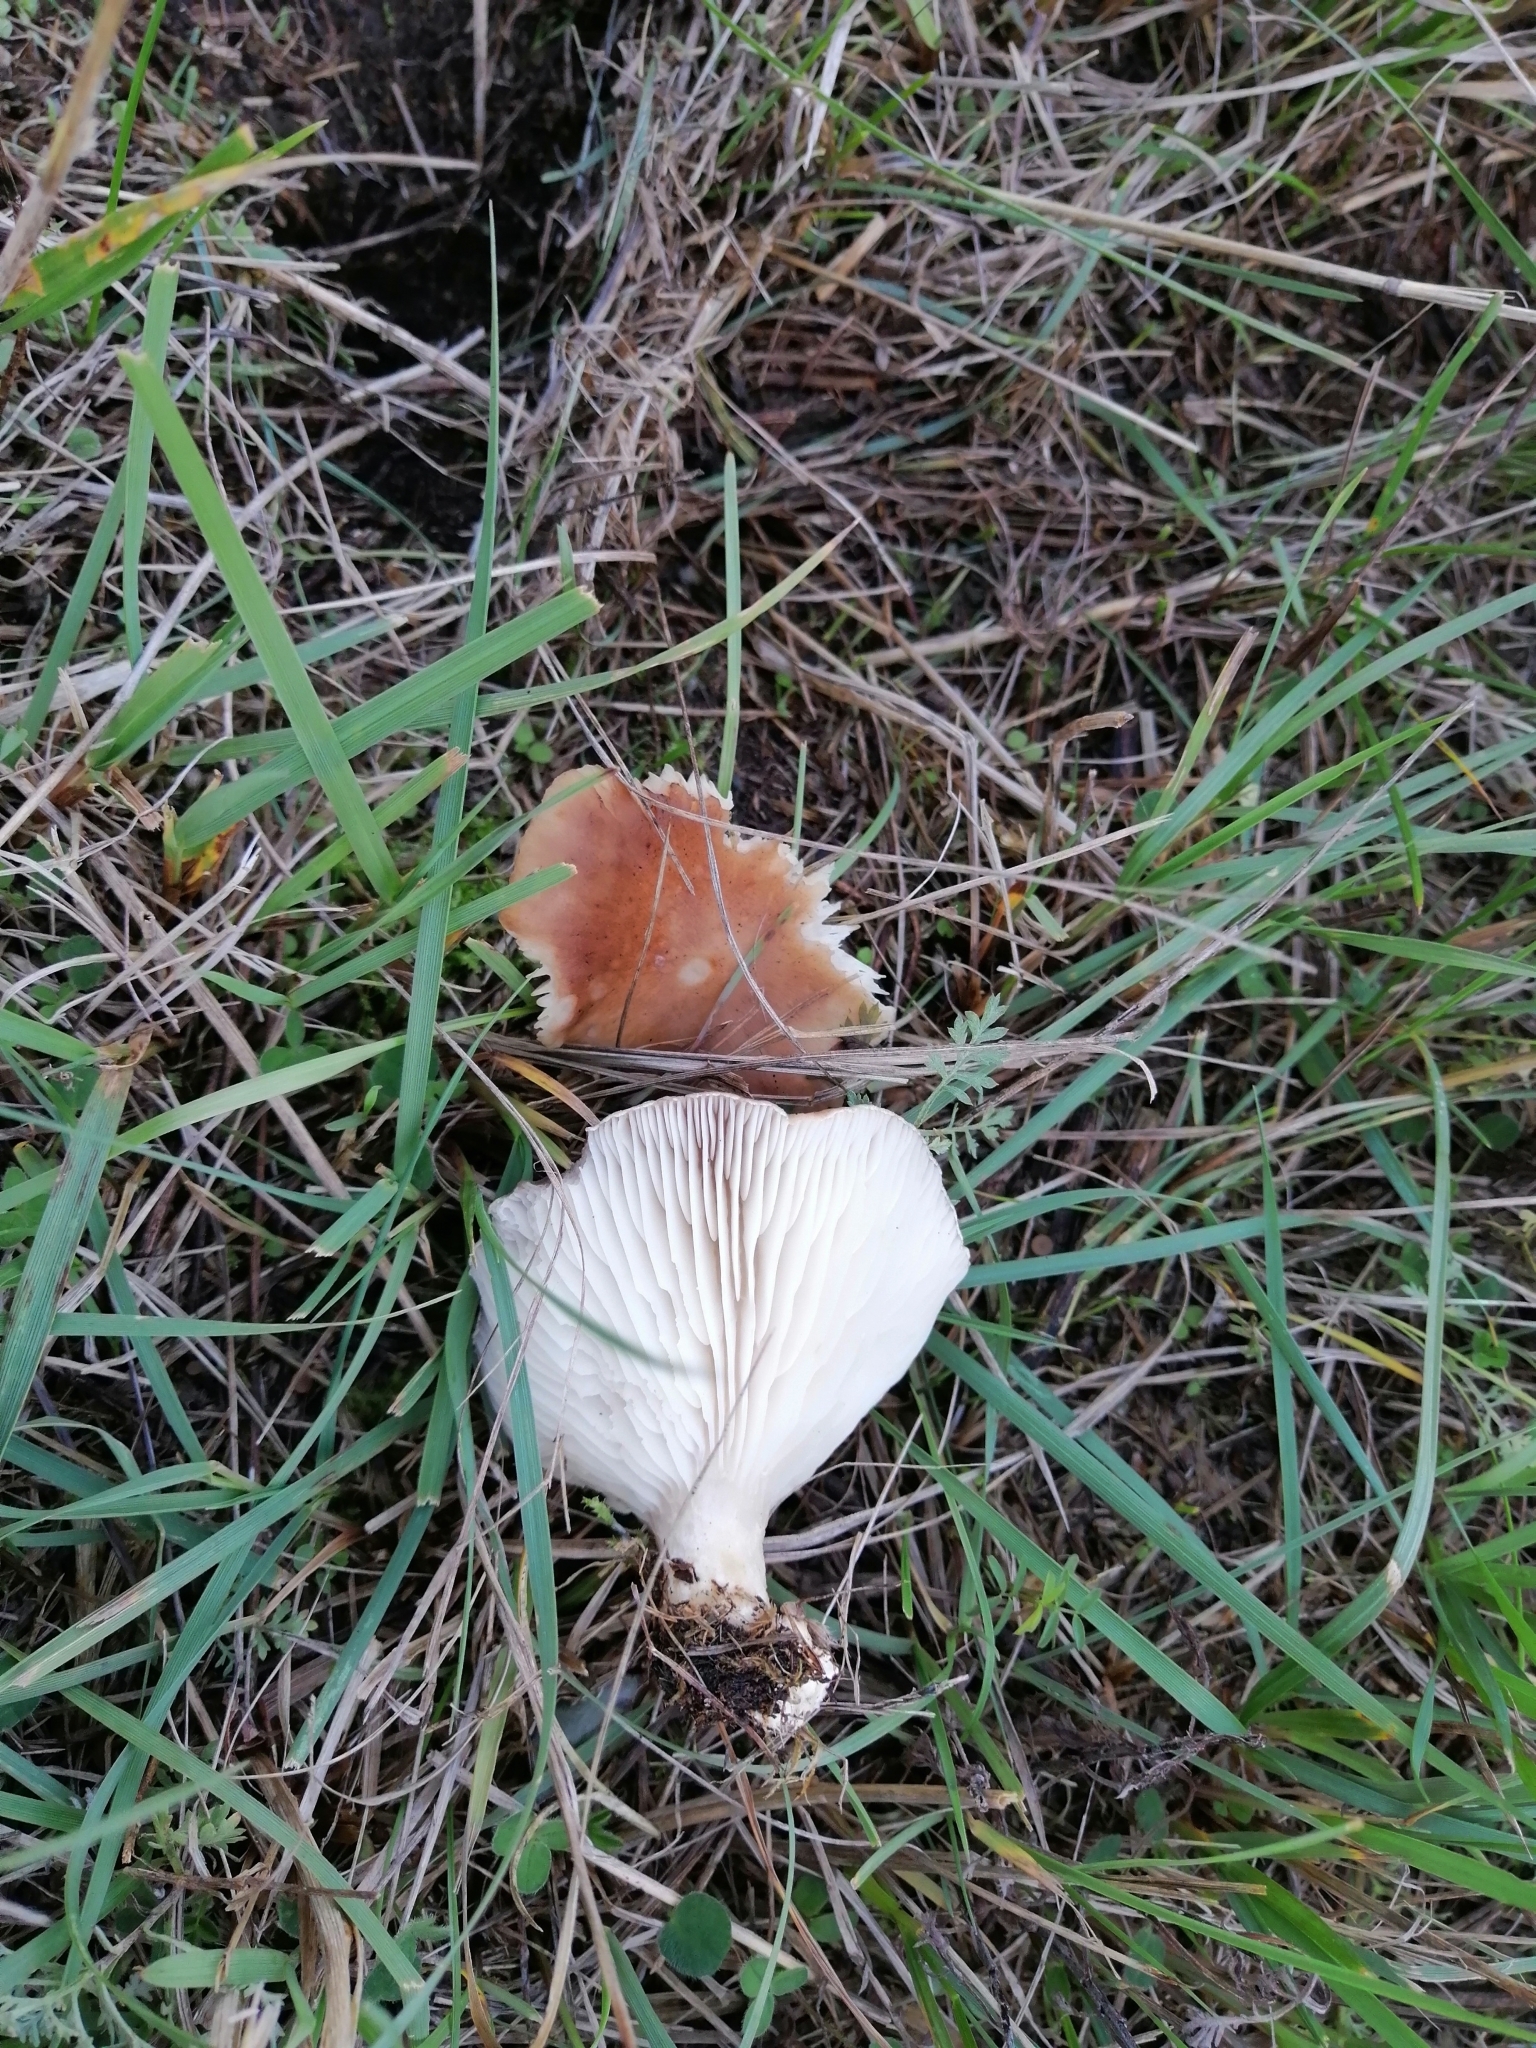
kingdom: Fungi
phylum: Basidiomycota
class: Agaricomycetes
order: Agaricales
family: Pleurotaceae
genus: Pleurotus
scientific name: Pleurotus eryngii
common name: King oyster
